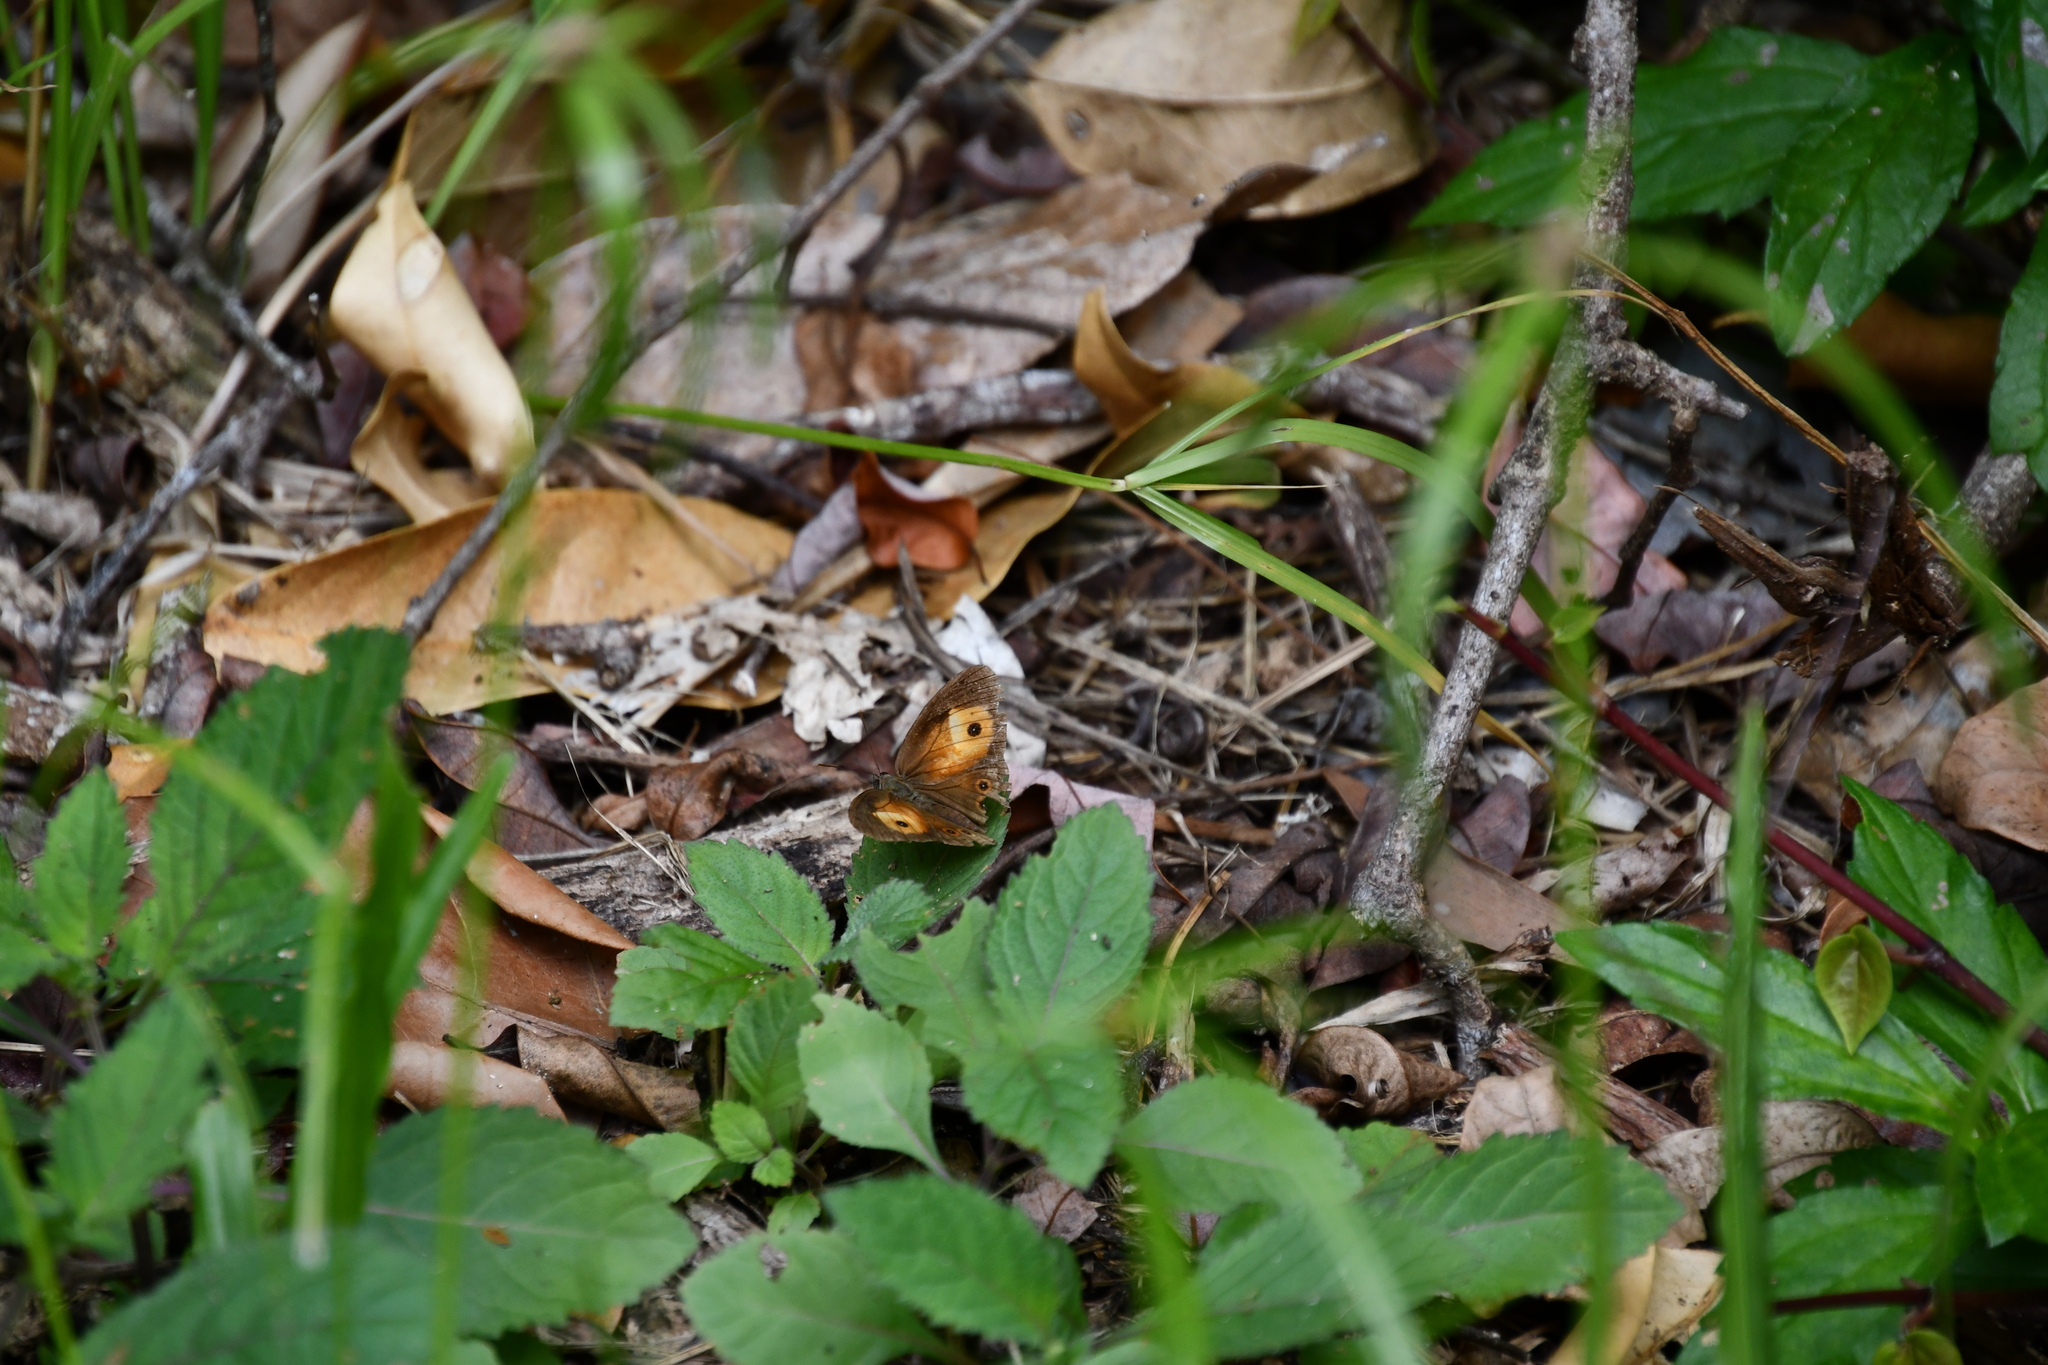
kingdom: Animalia
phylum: Arthropoda
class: Insecta
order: Lepidoptera
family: Nymphalidae
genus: Mycalesis
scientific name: Mycalesis terminus
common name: Orange bushbrown
